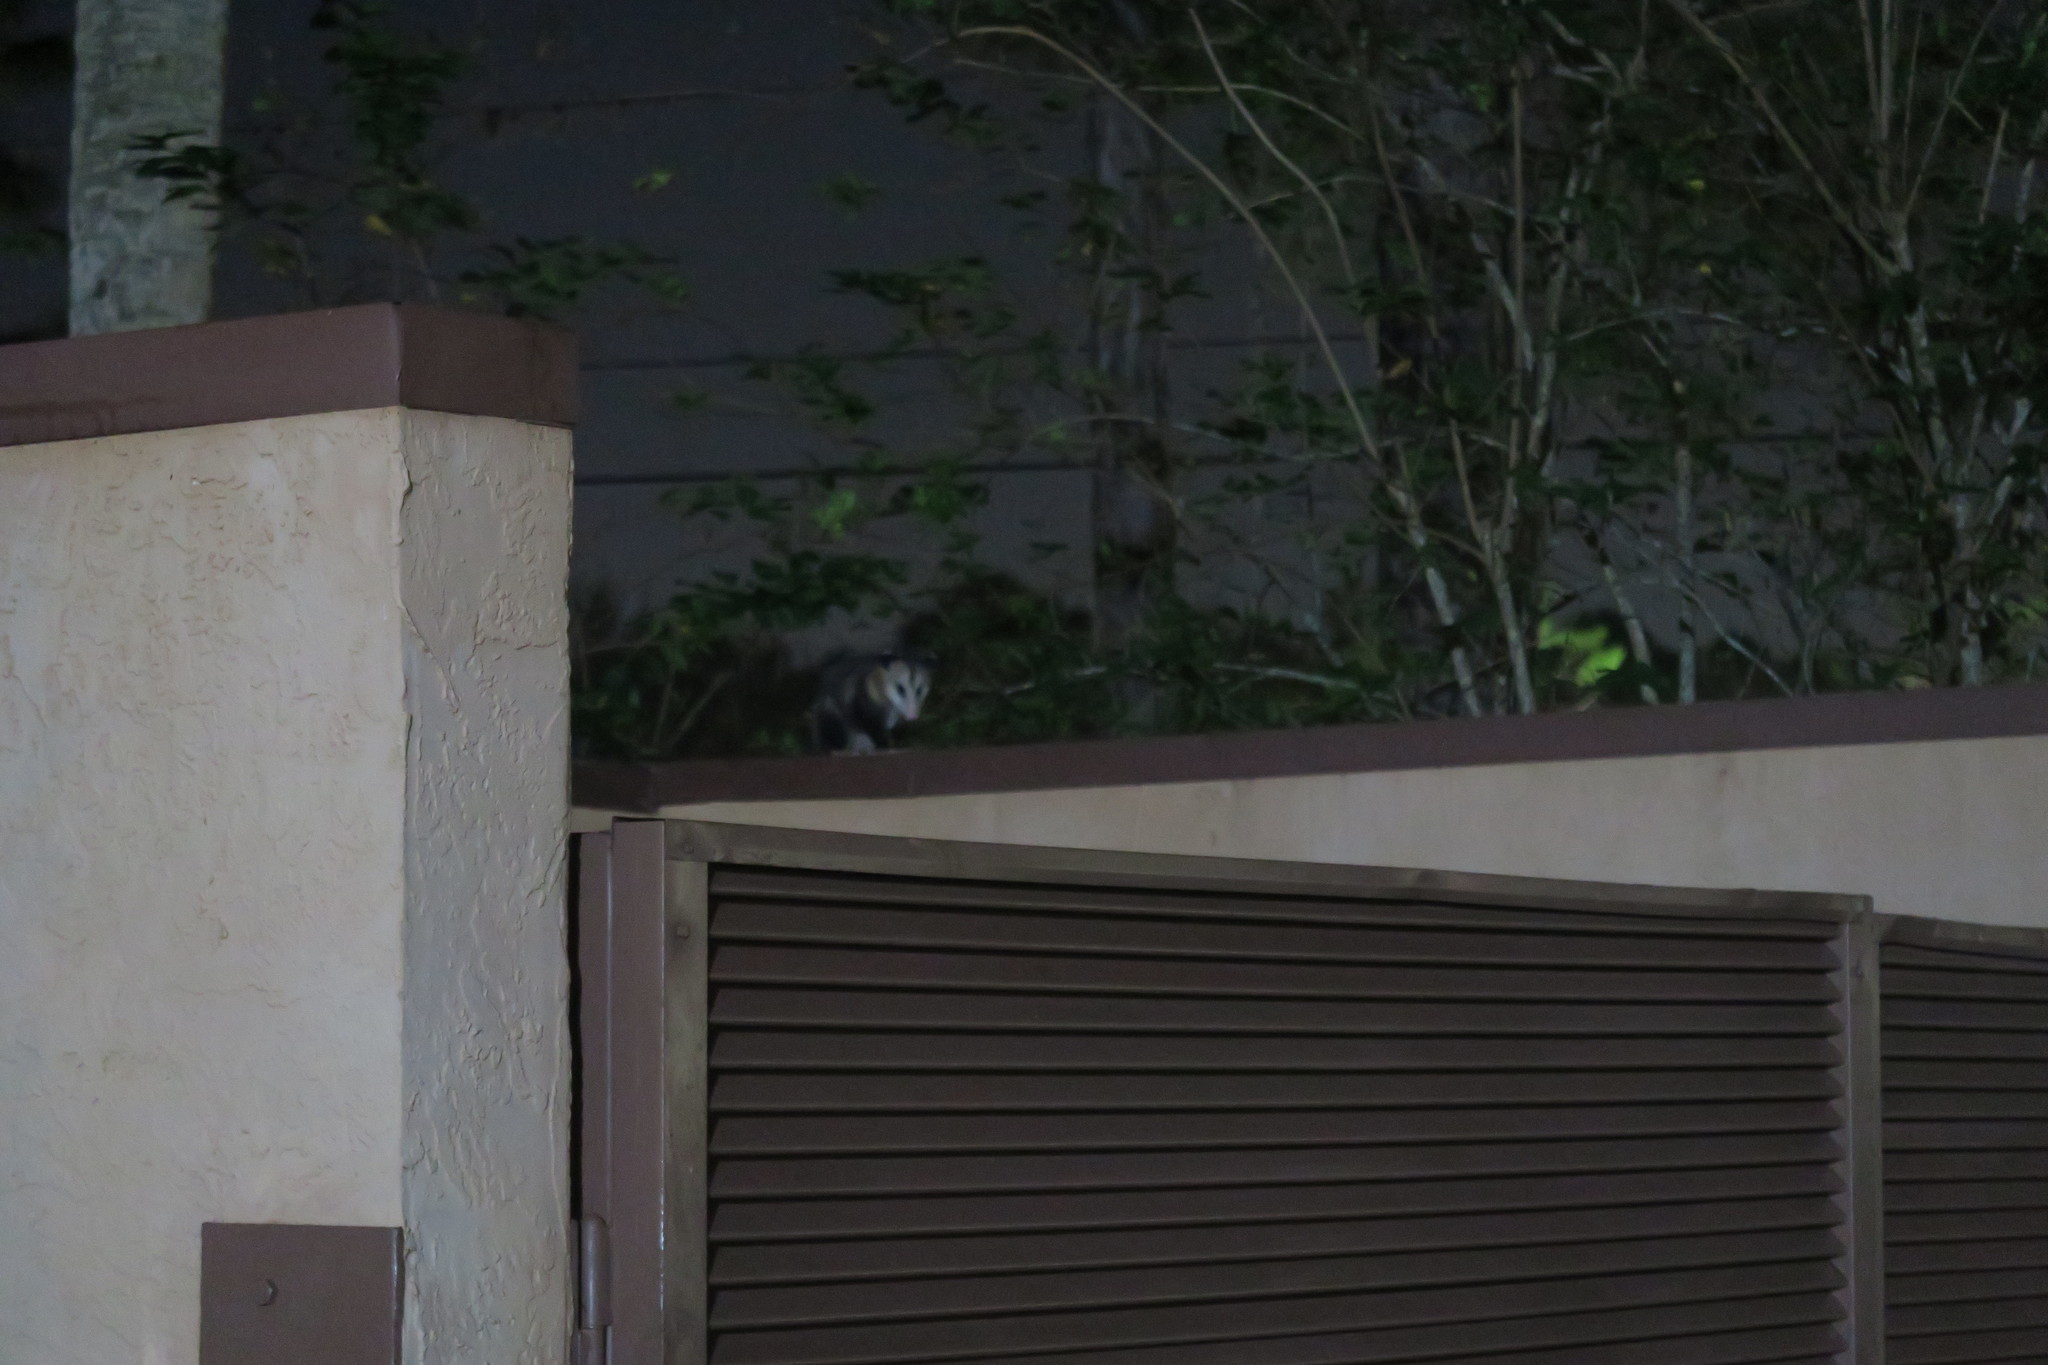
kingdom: Animalia
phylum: Chordata
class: Mammalia
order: Didelphimorphia
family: Didelphidae
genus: Didelphis
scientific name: Didelphis virginiana
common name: Virginia opossum
